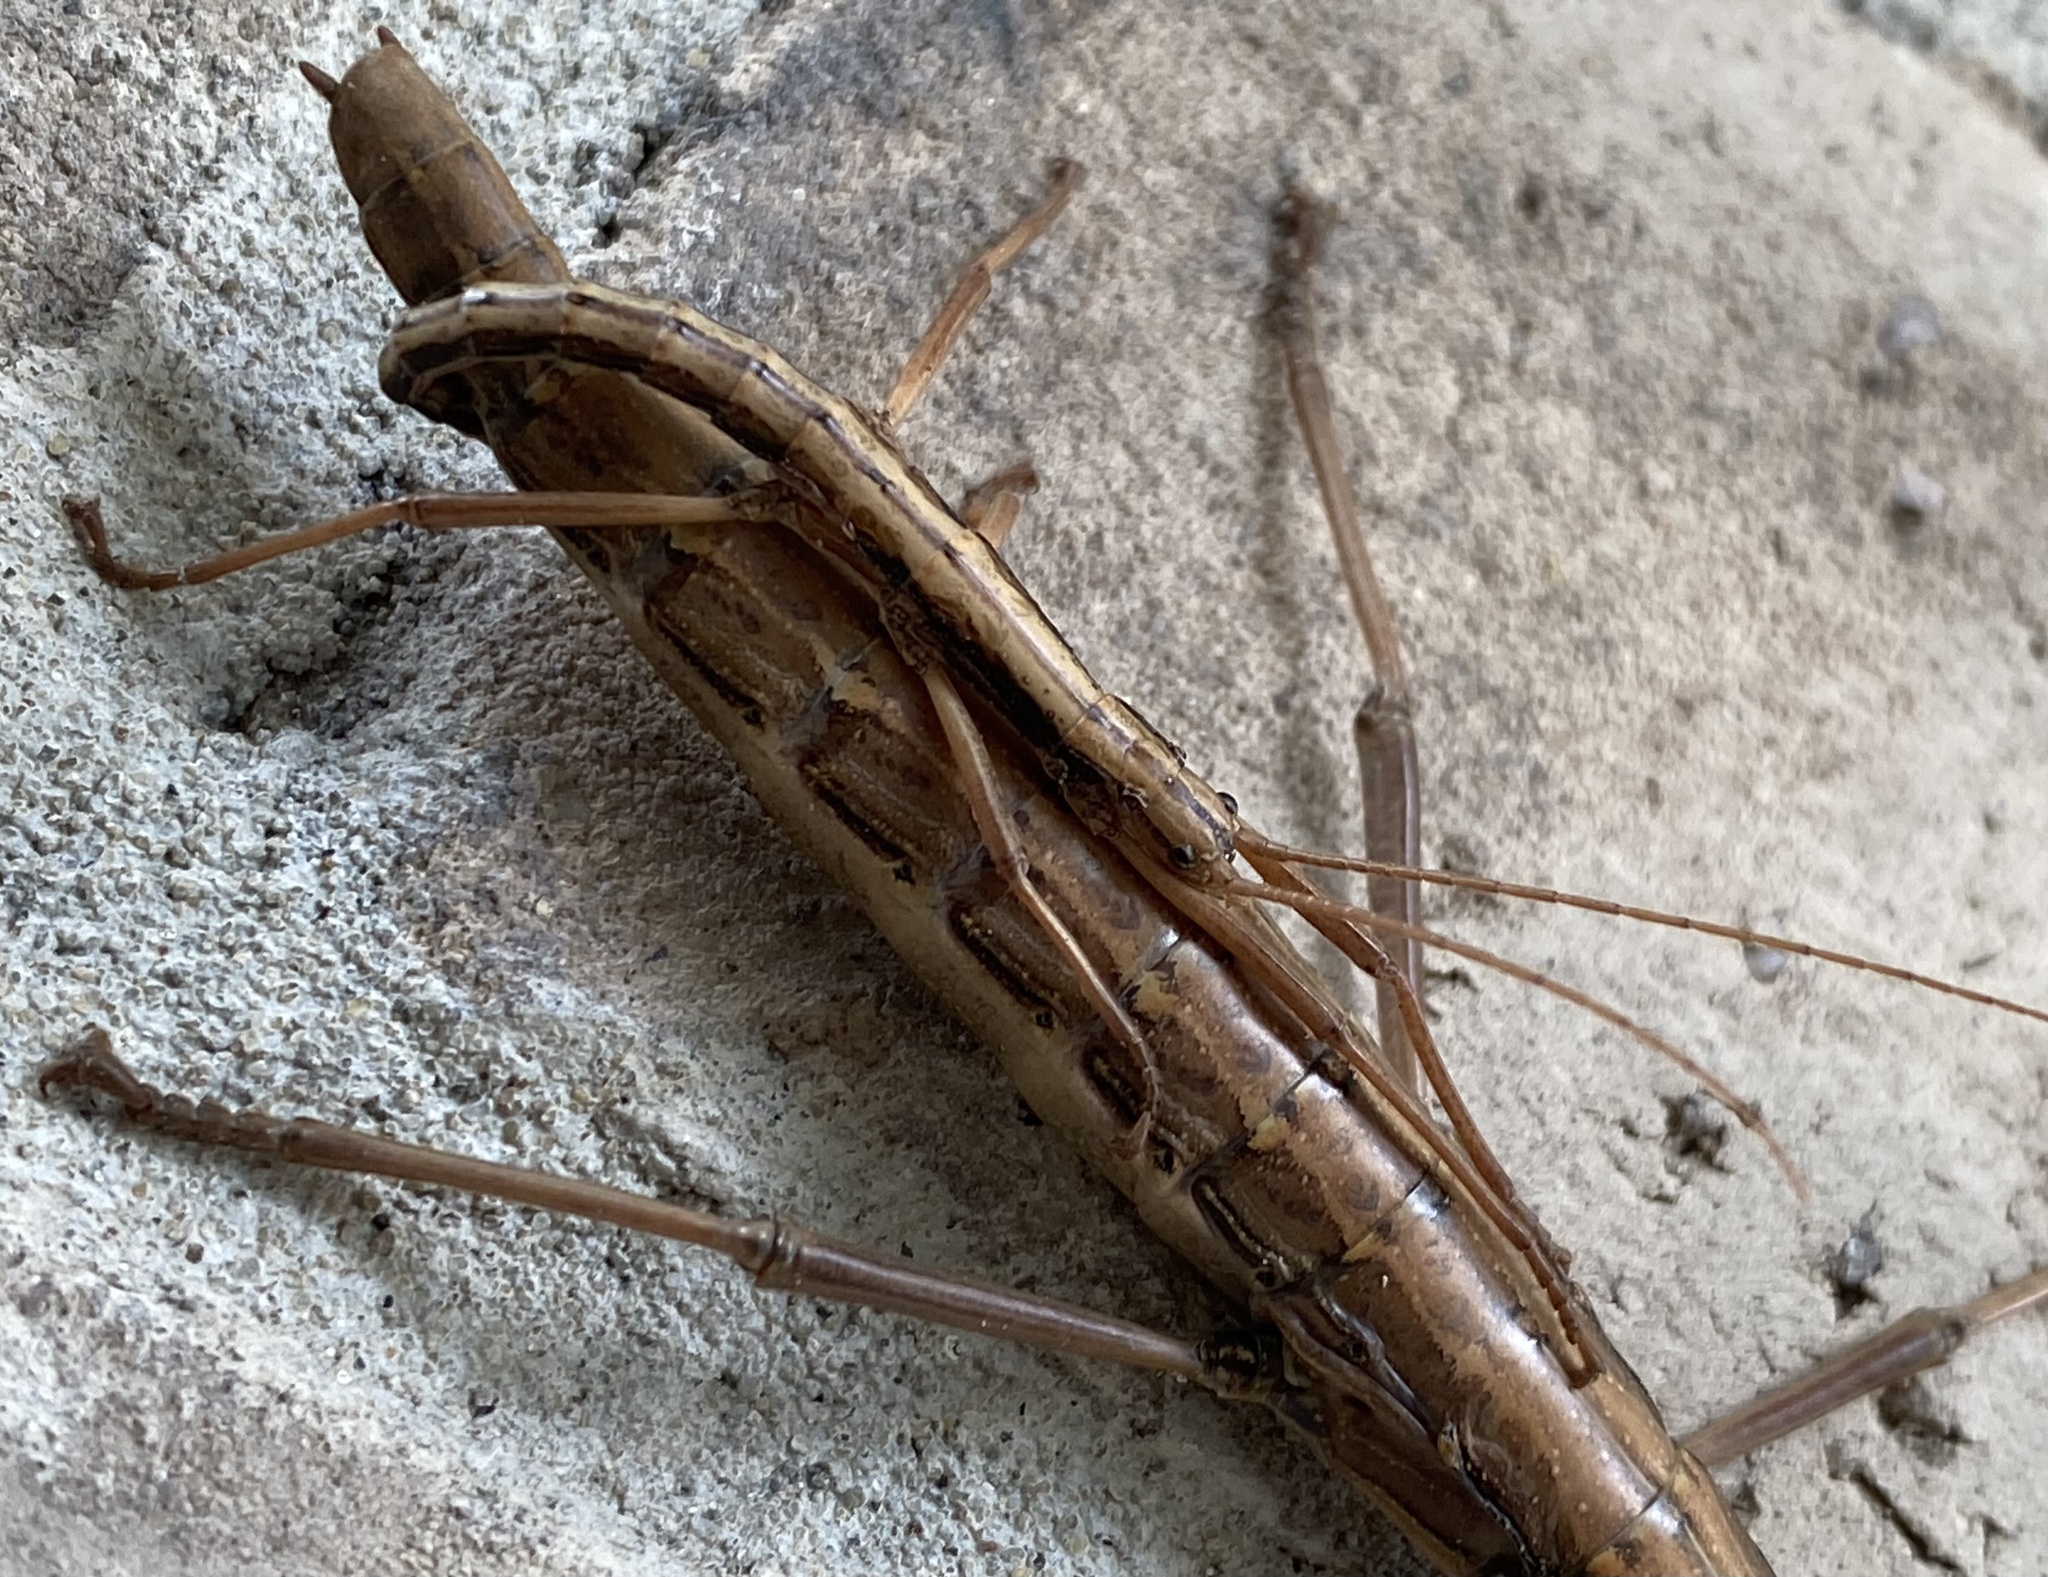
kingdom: Animalia
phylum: Arthropoda
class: Insecta
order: Phasmida
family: Pseudophasmatidae
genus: Anisomorpha
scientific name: Anisomorpha buprestoides
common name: Florida stick insect
